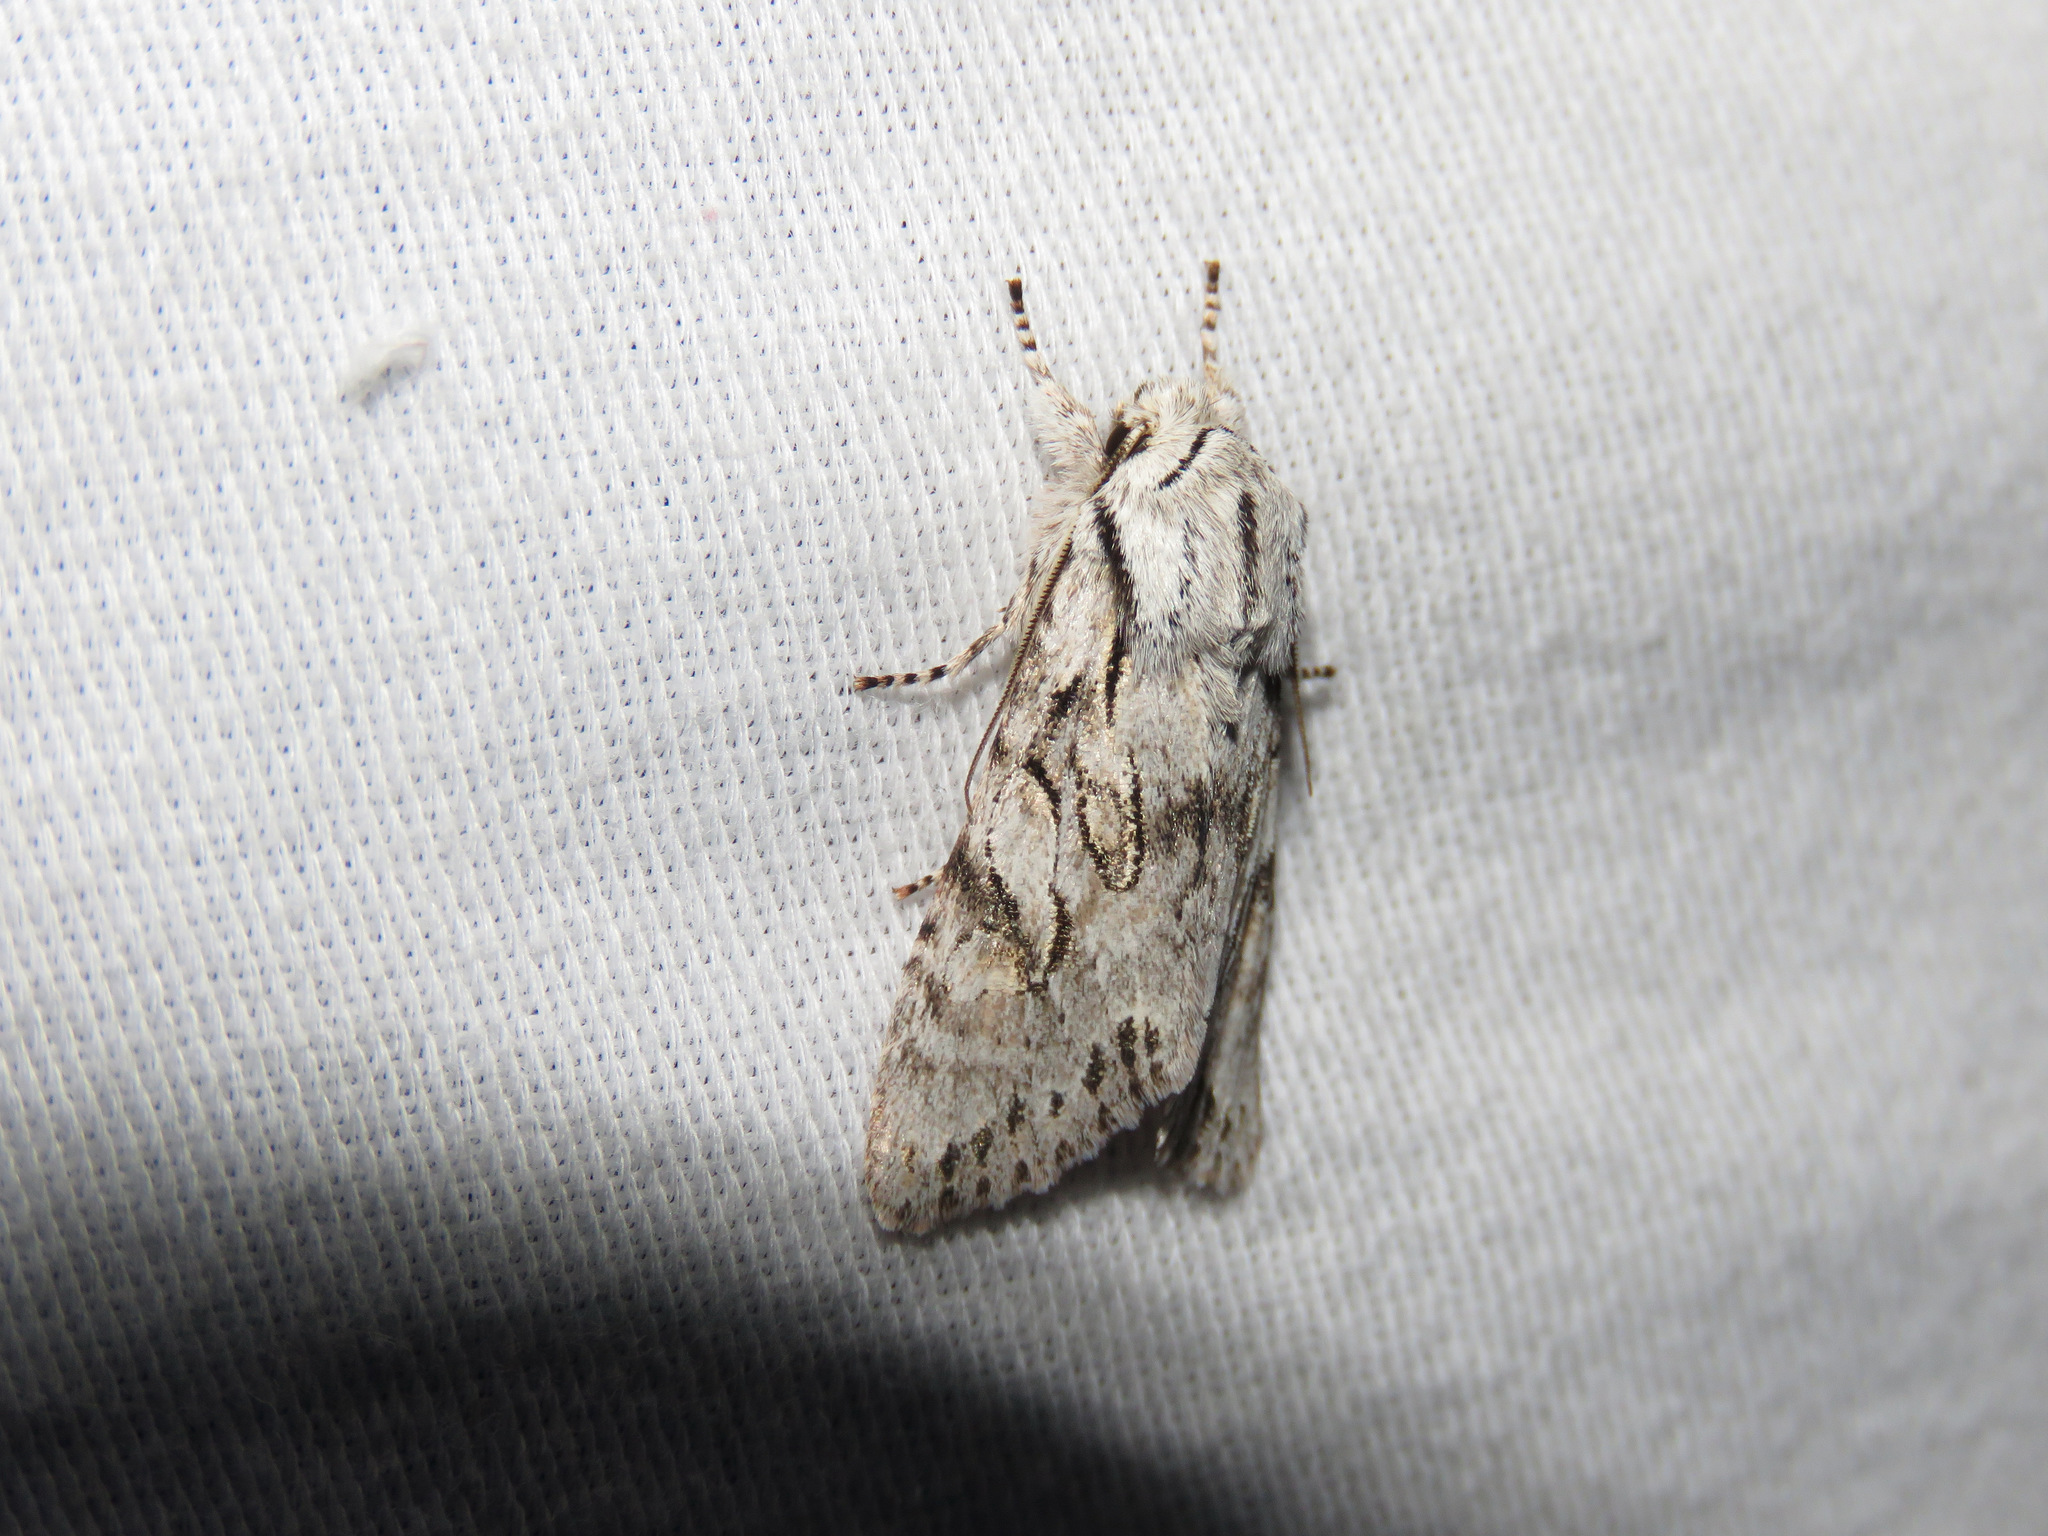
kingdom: Animalia
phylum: Arthropoda
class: Insecta
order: Lepidoptera
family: Noctuidae
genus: Egira
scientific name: Egira simplex
